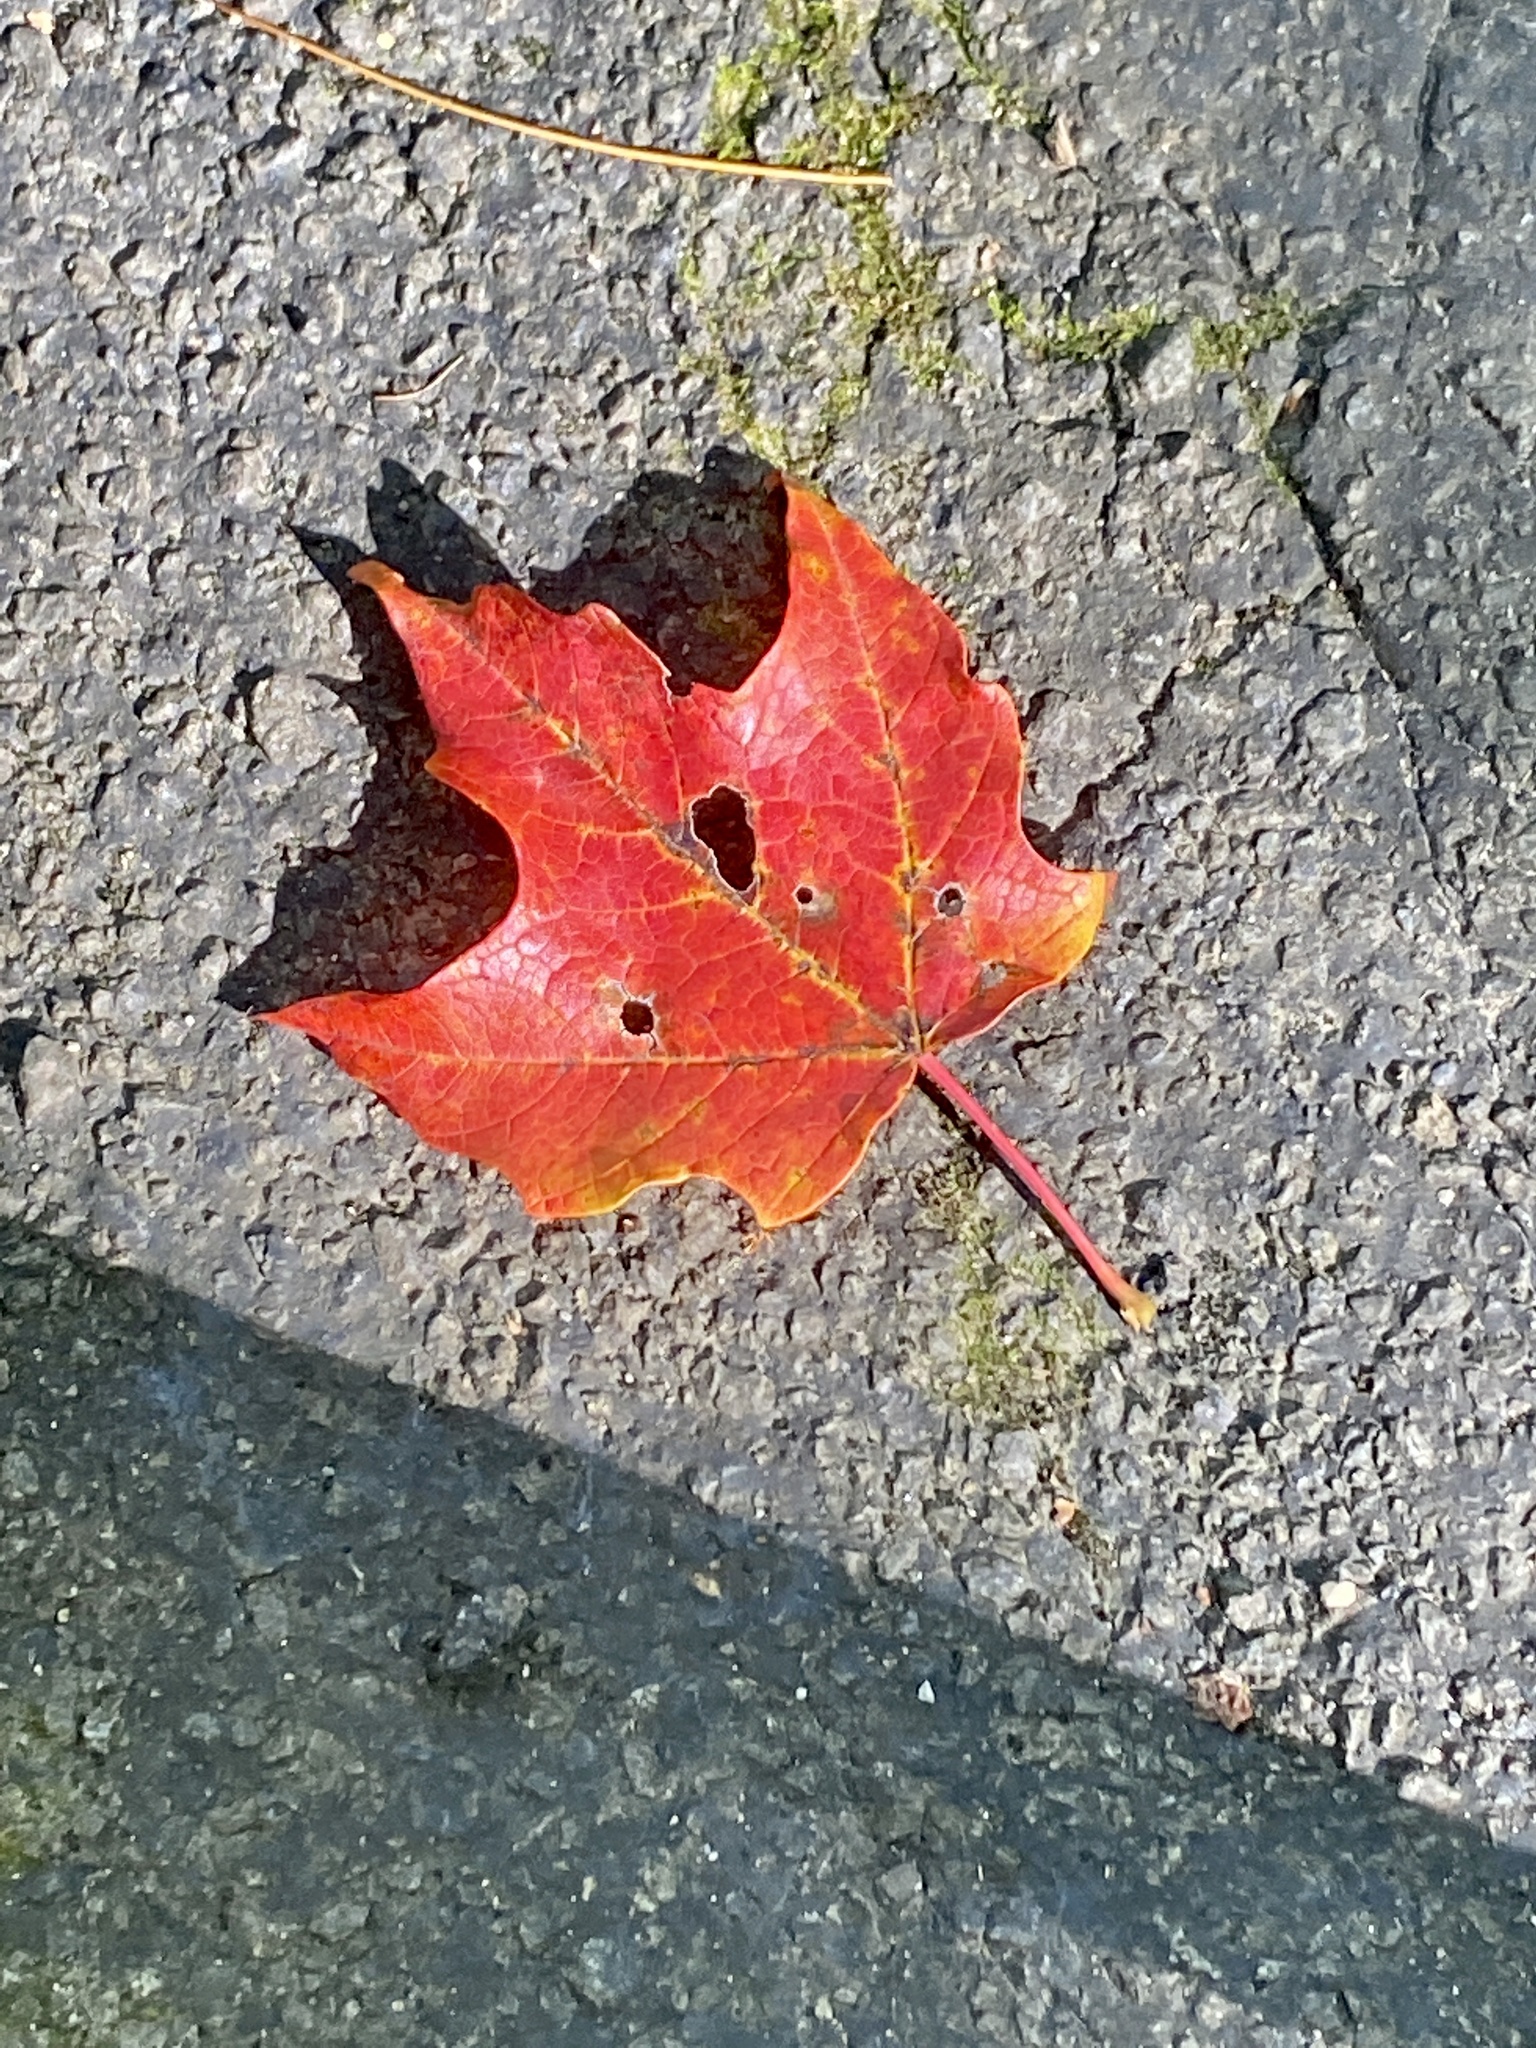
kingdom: Plantae
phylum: Tracheophyta
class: Magnoliopsida
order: Sapindales
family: Sapindaceae
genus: Acer
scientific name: Acer saccharum
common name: Sugar maple
